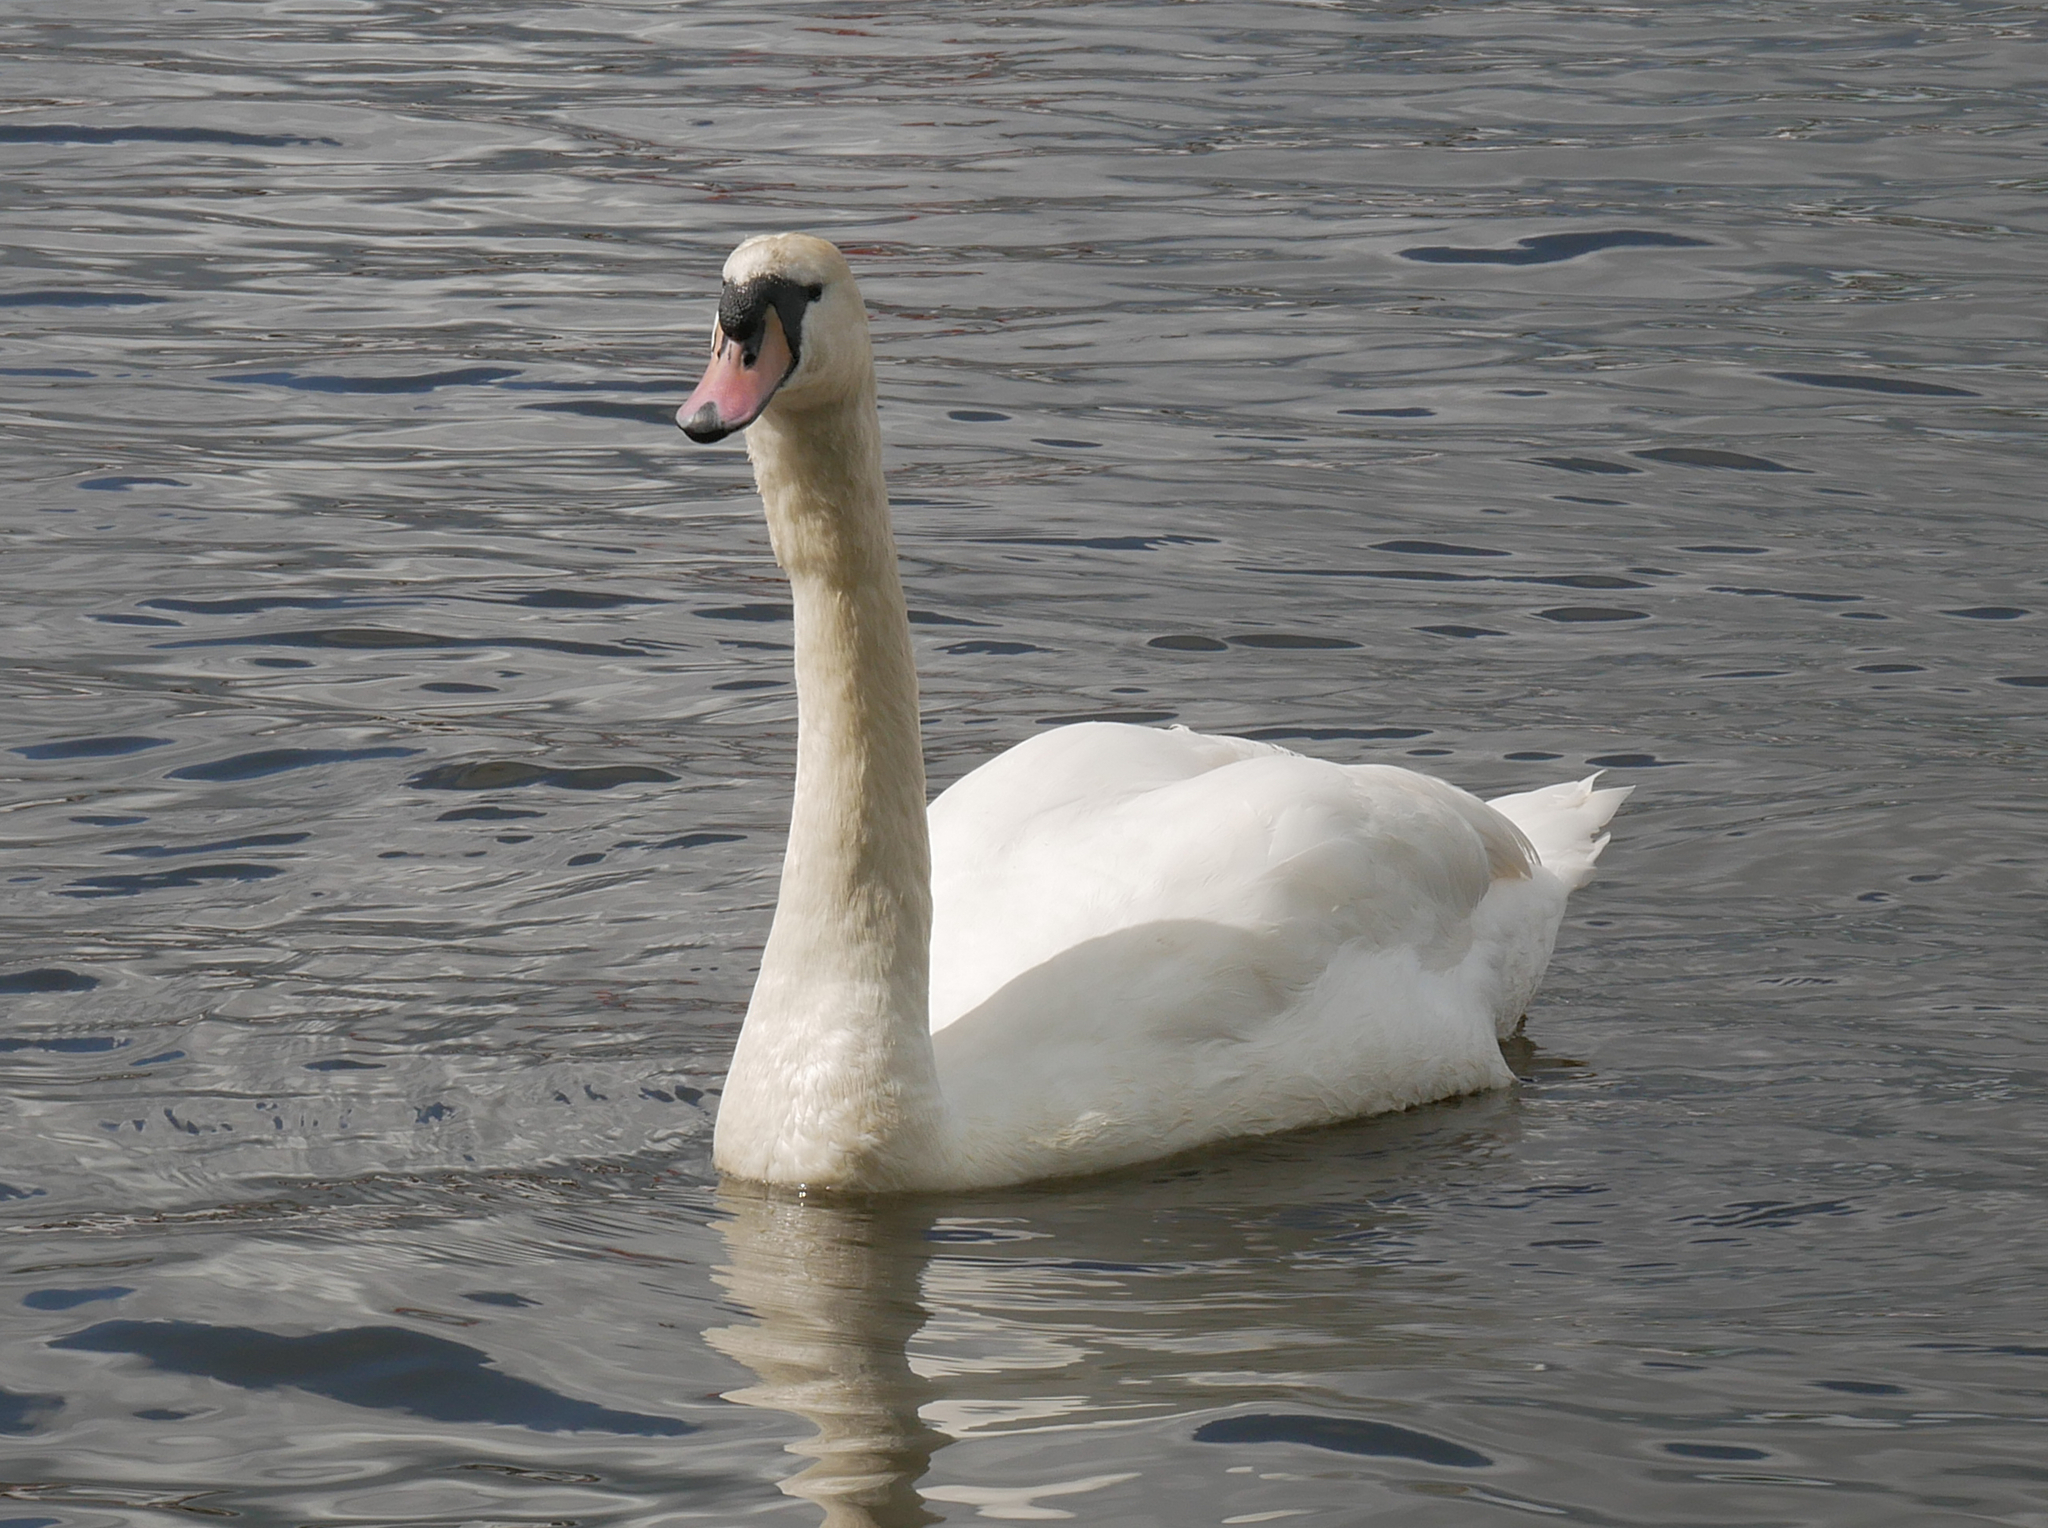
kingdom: Animalia
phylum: Chordata
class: Aves
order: Anseriformes
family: Anatidae
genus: Cygnus
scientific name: Cygnus olor
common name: Mute swan
